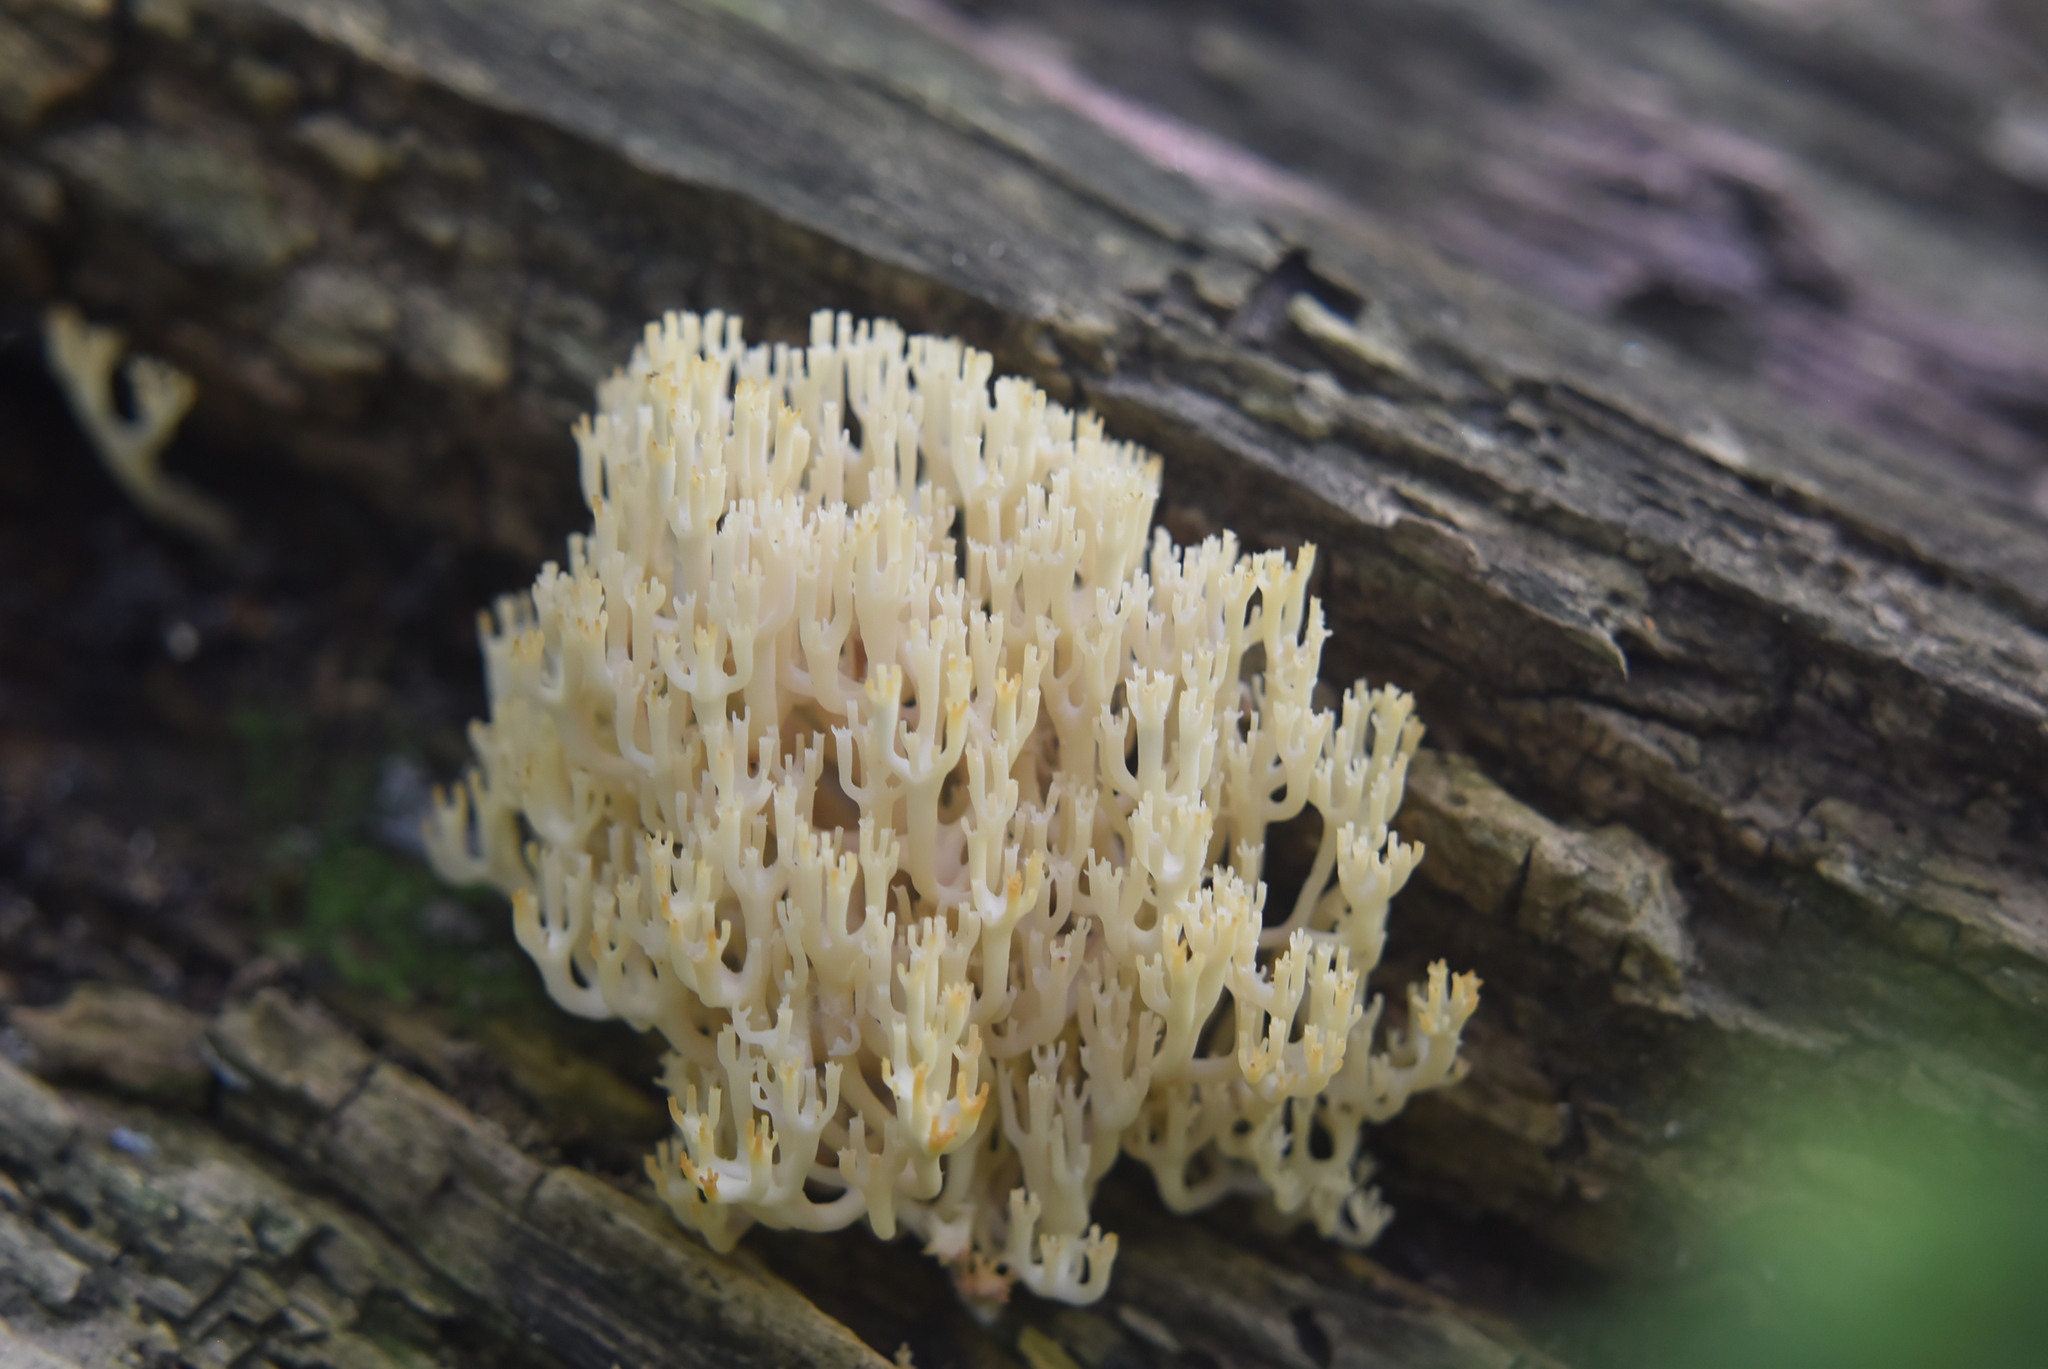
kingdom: Fungi
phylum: Basidiomycota
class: Agaricomycetes
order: Russulales
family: Auriscalpiaceae
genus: Artomyces
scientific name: Artomyces pyxidatus
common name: Crown-tipped coral fungus
